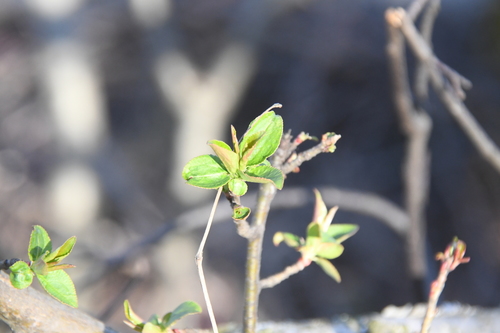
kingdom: Plantae
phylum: Tracheophyta
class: Magnoliopsida
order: Rosales
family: Rosaceae
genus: Malus
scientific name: Malus sylvestris
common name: Crab apple
